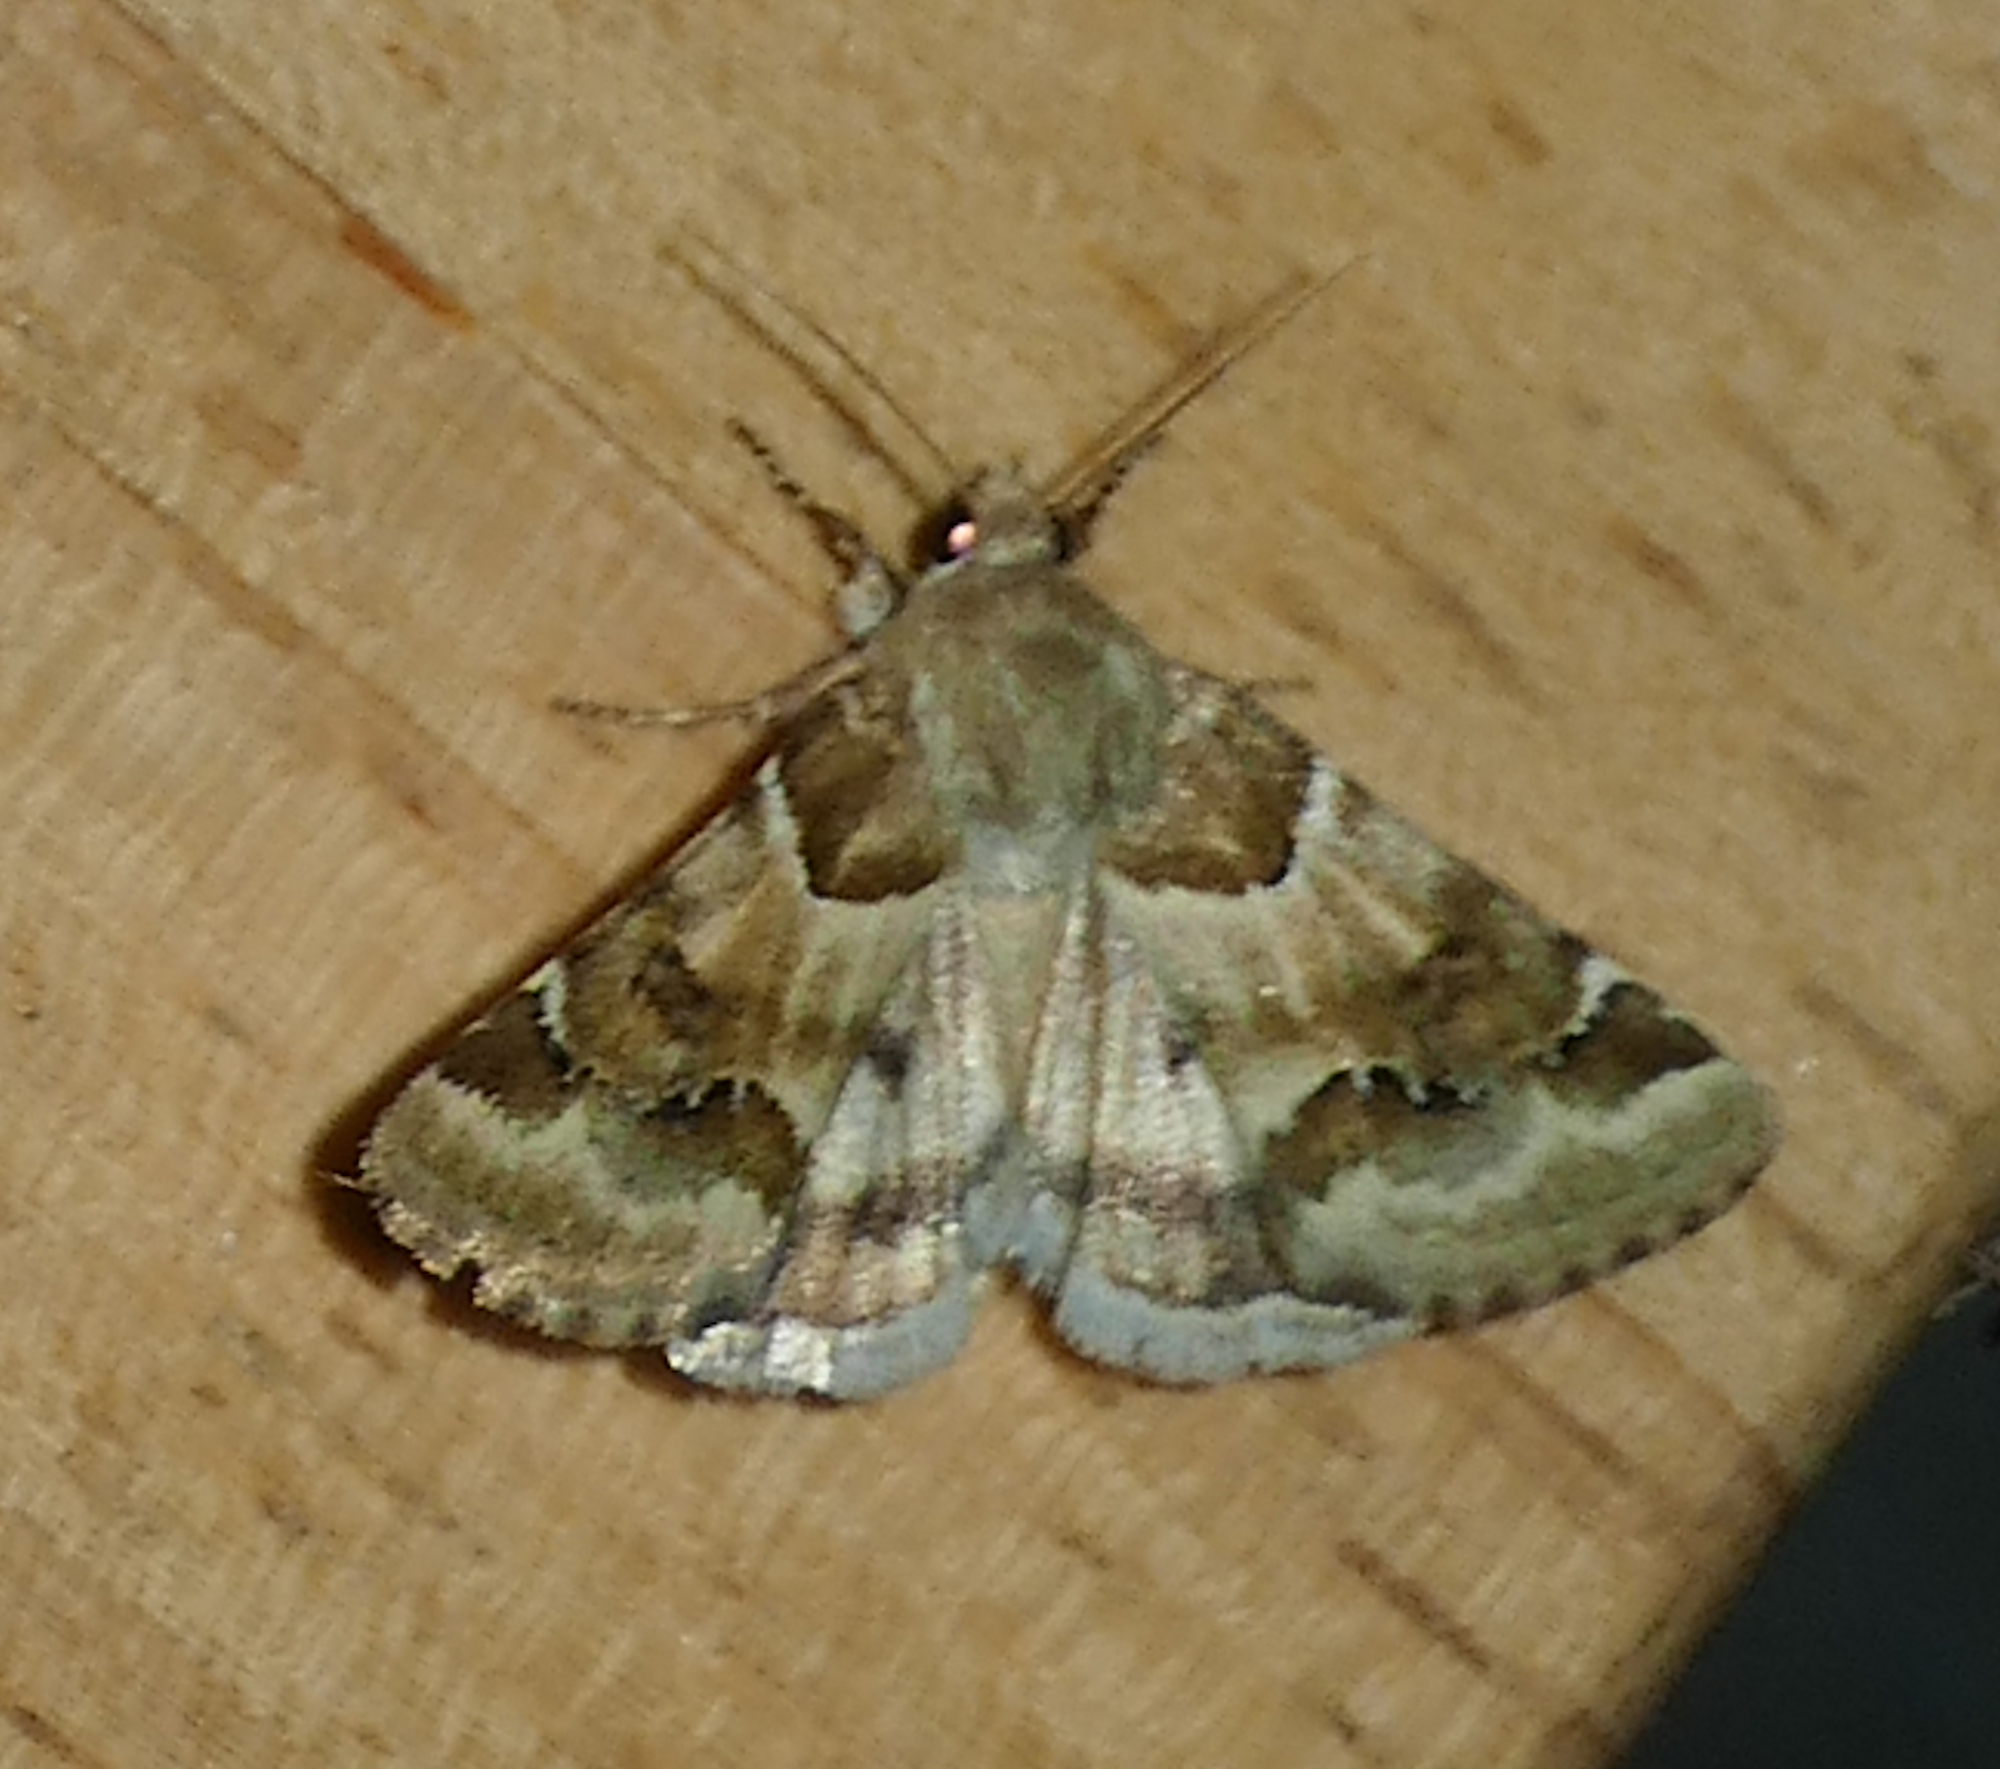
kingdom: Animalia
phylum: Arthropoda
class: Insecta
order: Lepidoptera
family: Noctuidae
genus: Schinia
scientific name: Schinia walsinghami
